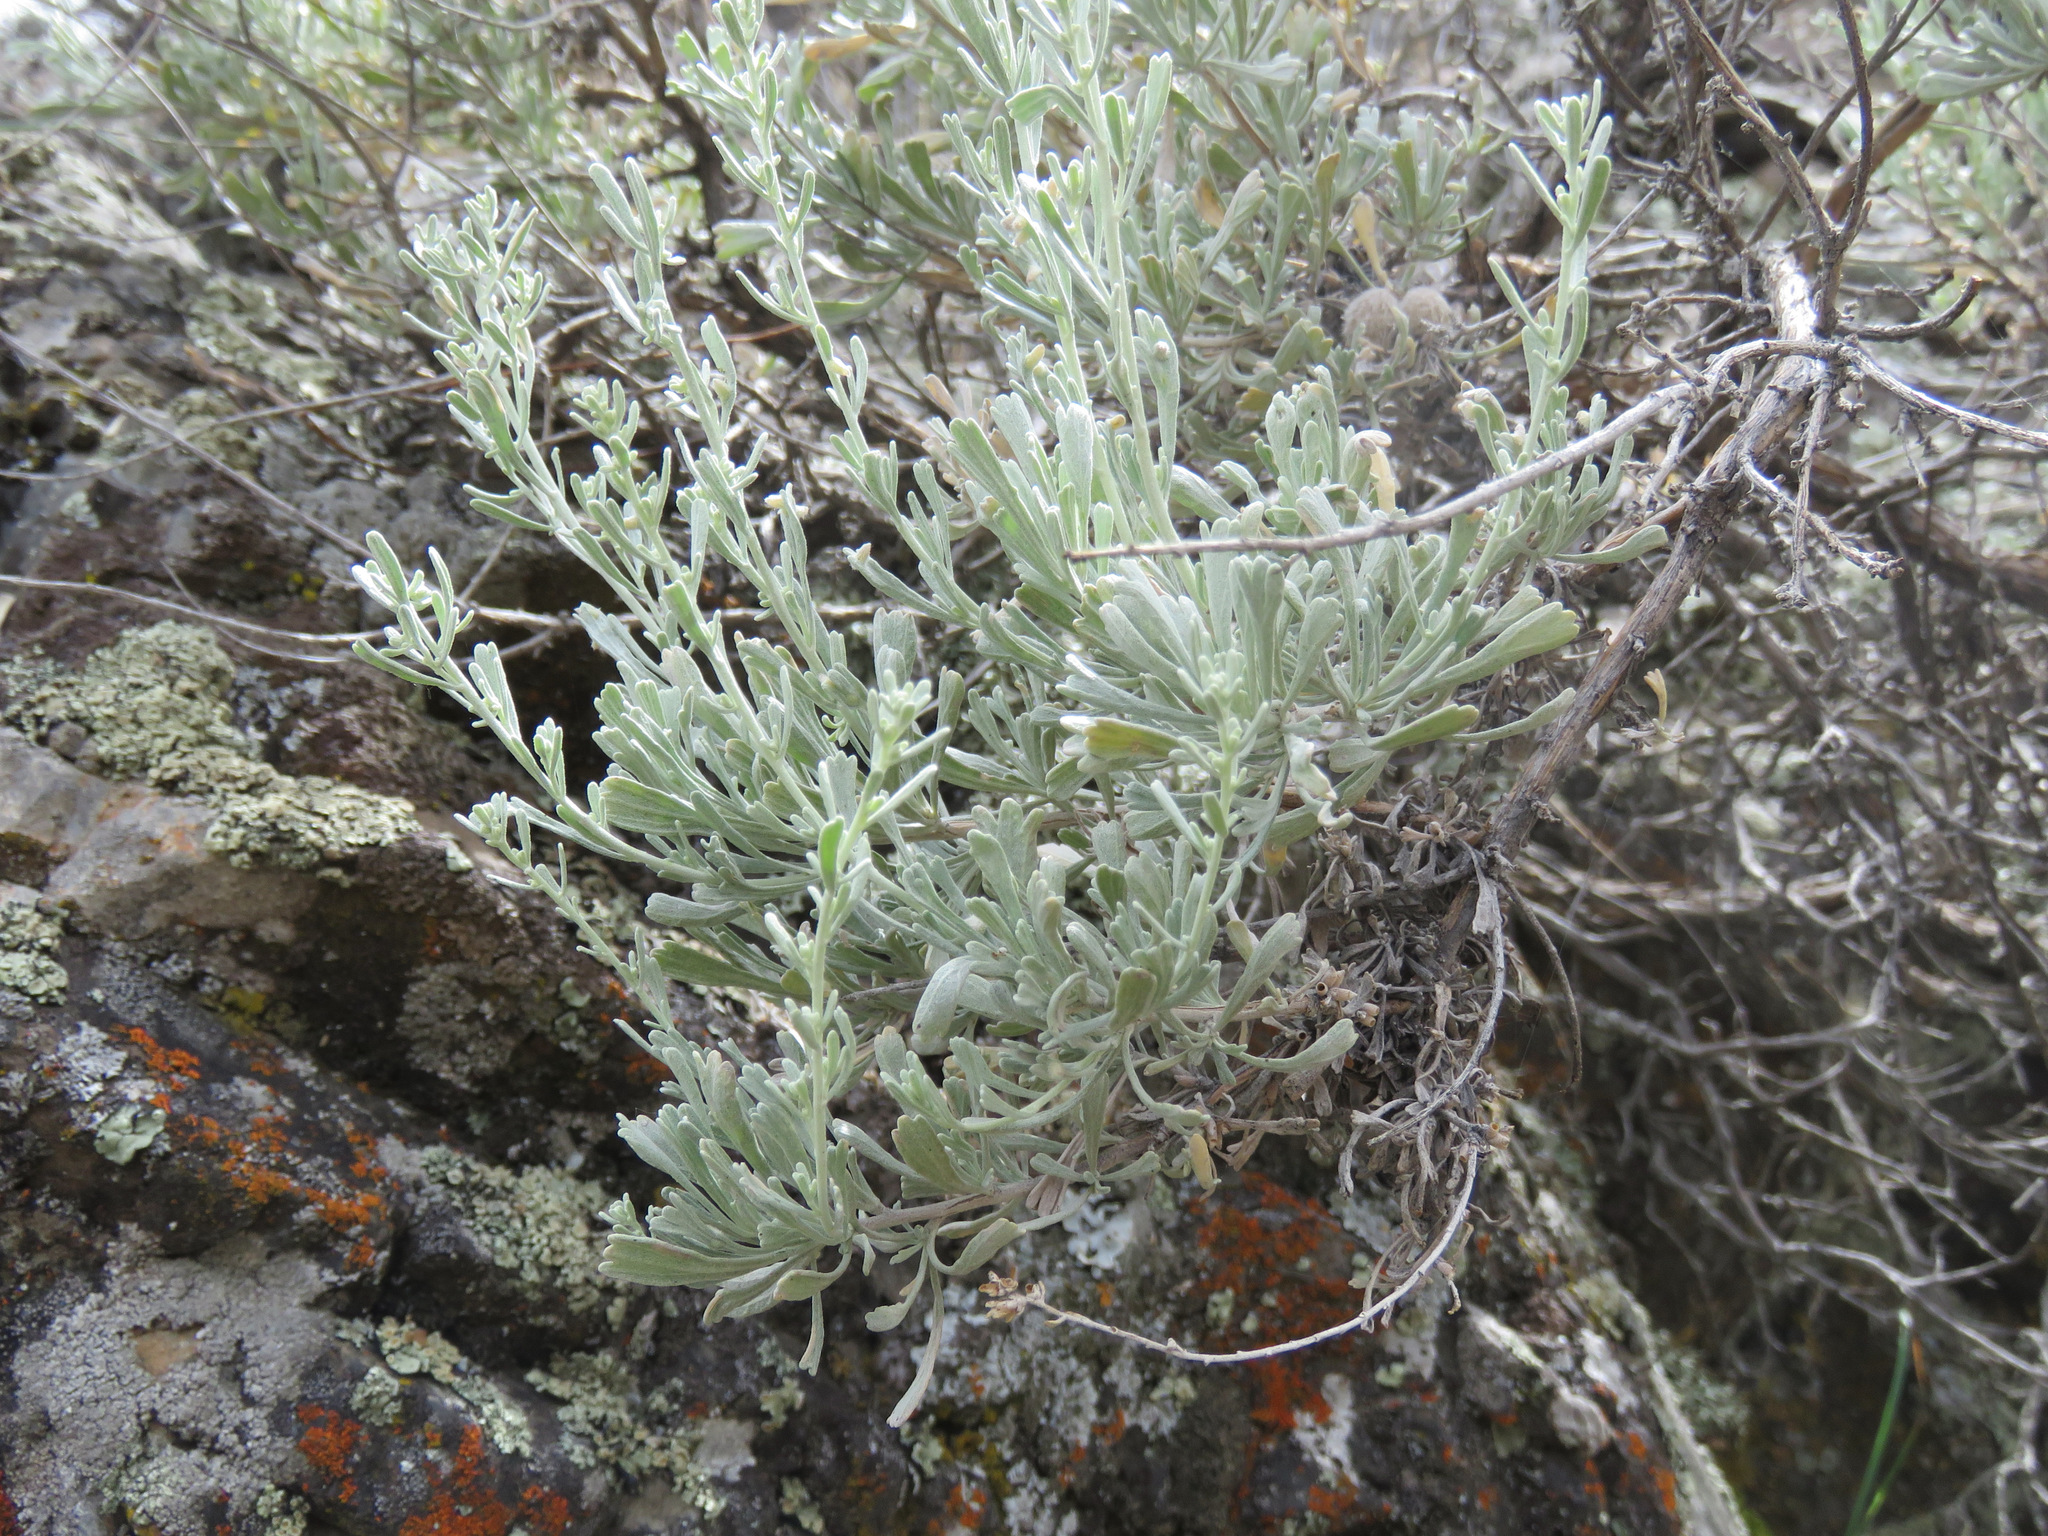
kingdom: Plantae
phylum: Tracheophyta
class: Magnoliopsida
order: Asterales
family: Asteraceae
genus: Artemisia
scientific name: Artemisia tridentata
